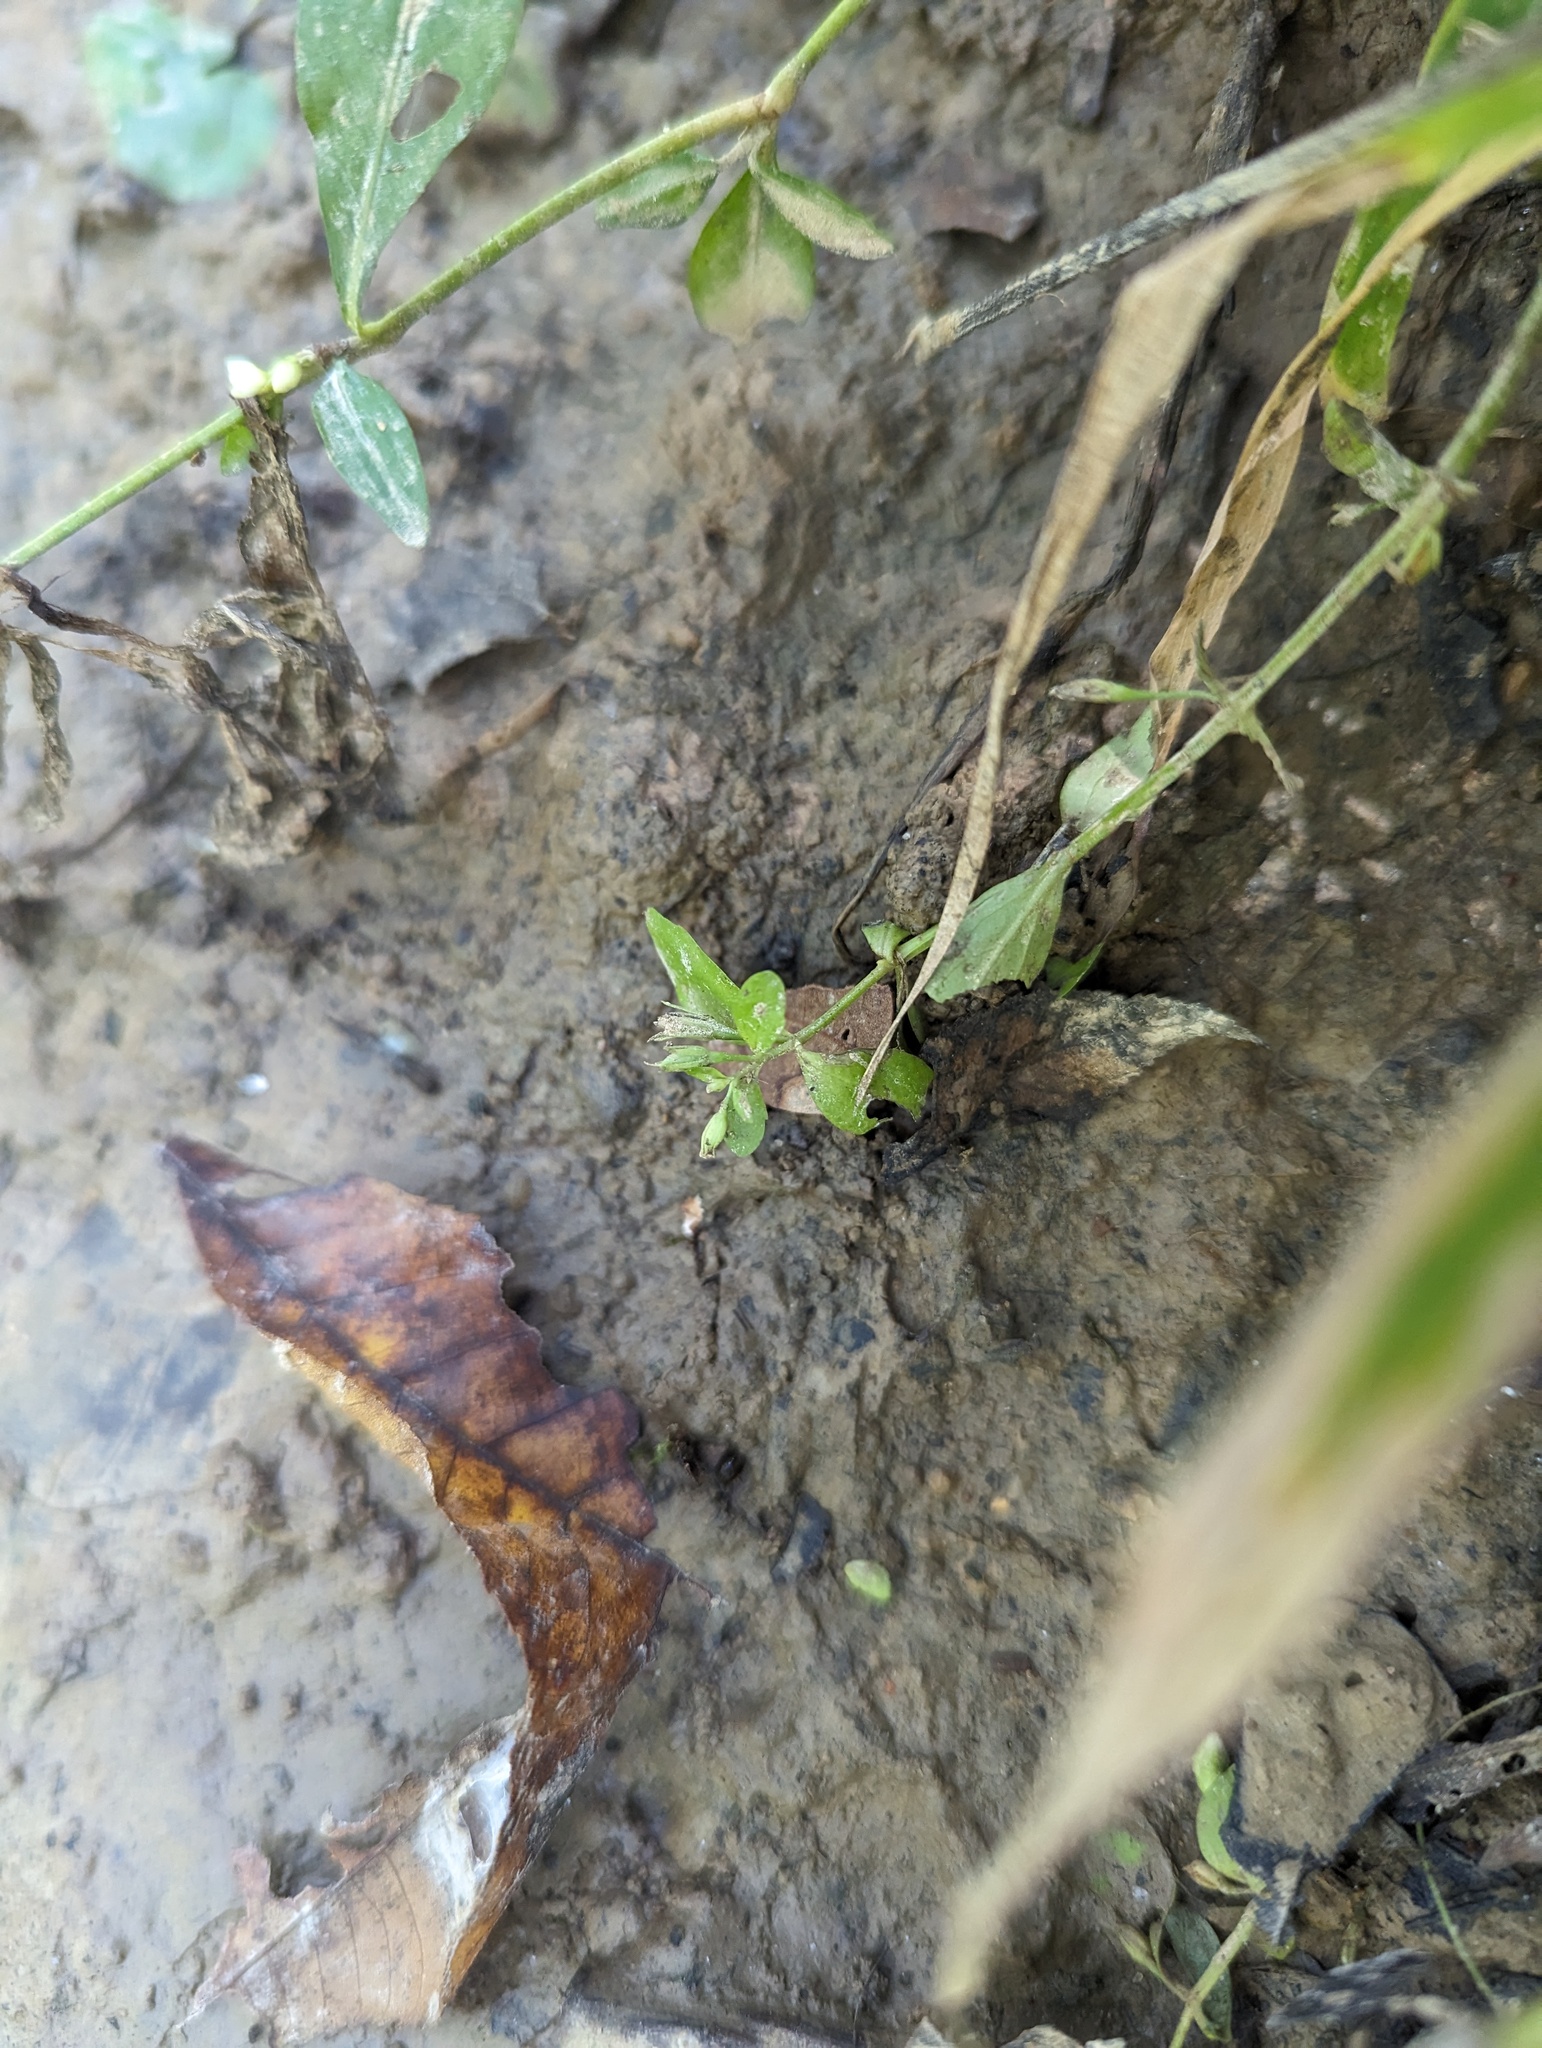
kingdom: Plantae
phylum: Tracheophyta
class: Magnoliopsida
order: Lamiales
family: Linderniaceae
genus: Lindernia
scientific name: Lindernia dubia
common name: Annual false pimpernel
